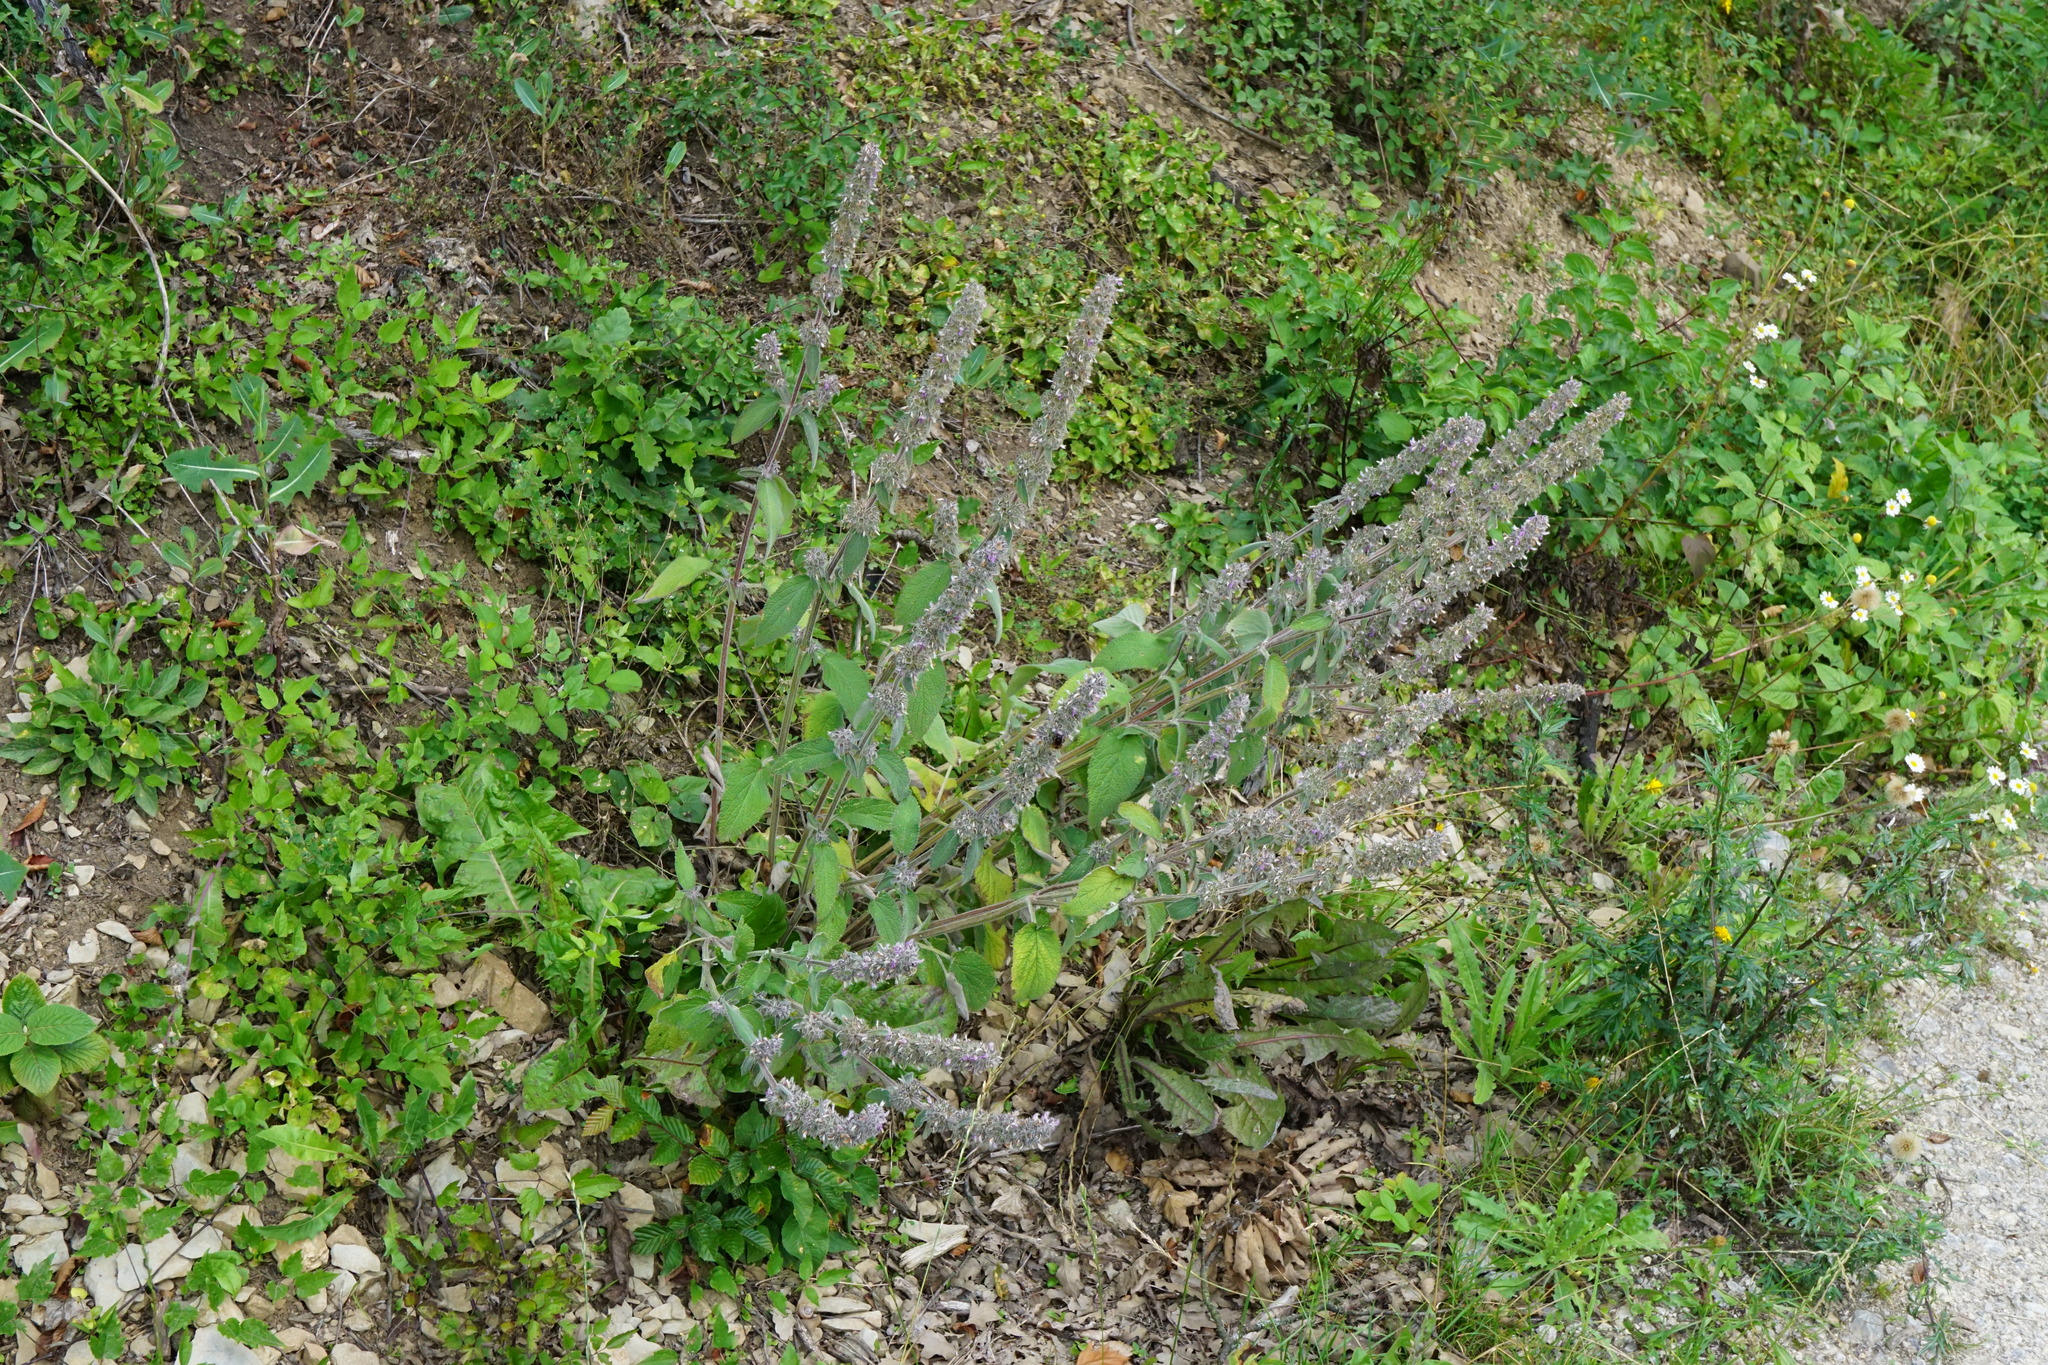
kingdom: Plantae
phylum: Tracheophyta
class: Magnoliopsida
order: Lamiales
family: Lamiaceae
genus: Stachys
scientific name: Stachys germanica
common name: Downy woundwort
